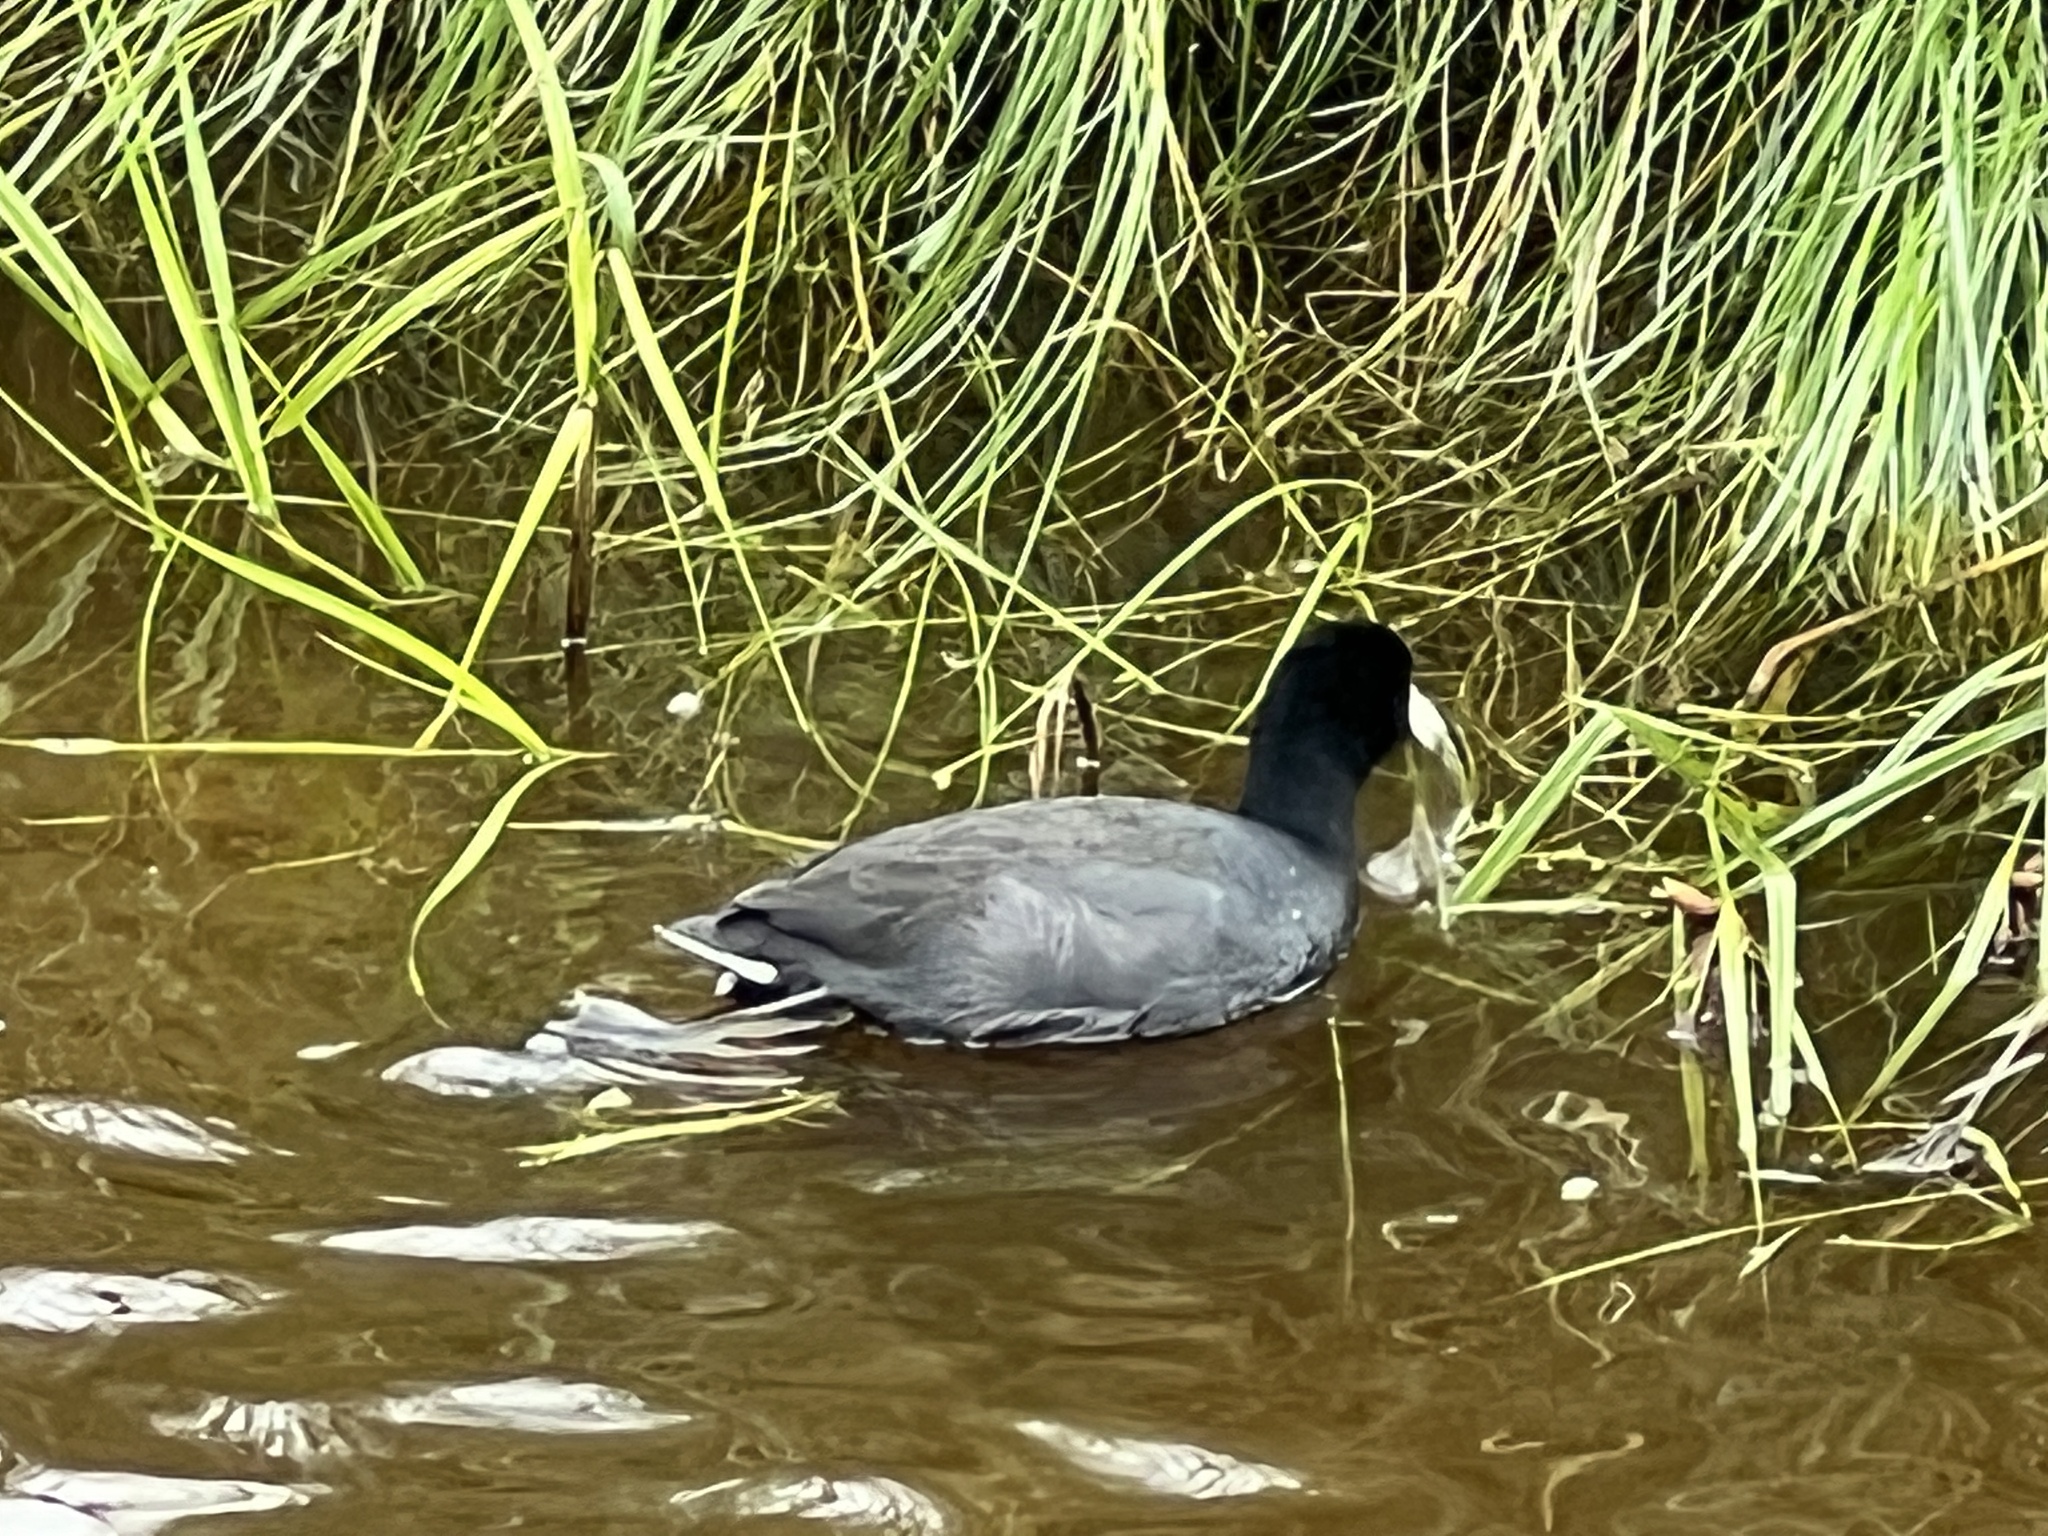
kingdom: Animalia
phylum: Chordata
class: Aves
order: Gruiformes
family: Rallidae
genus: Fulica
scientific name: Fulica americana
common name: American coot
